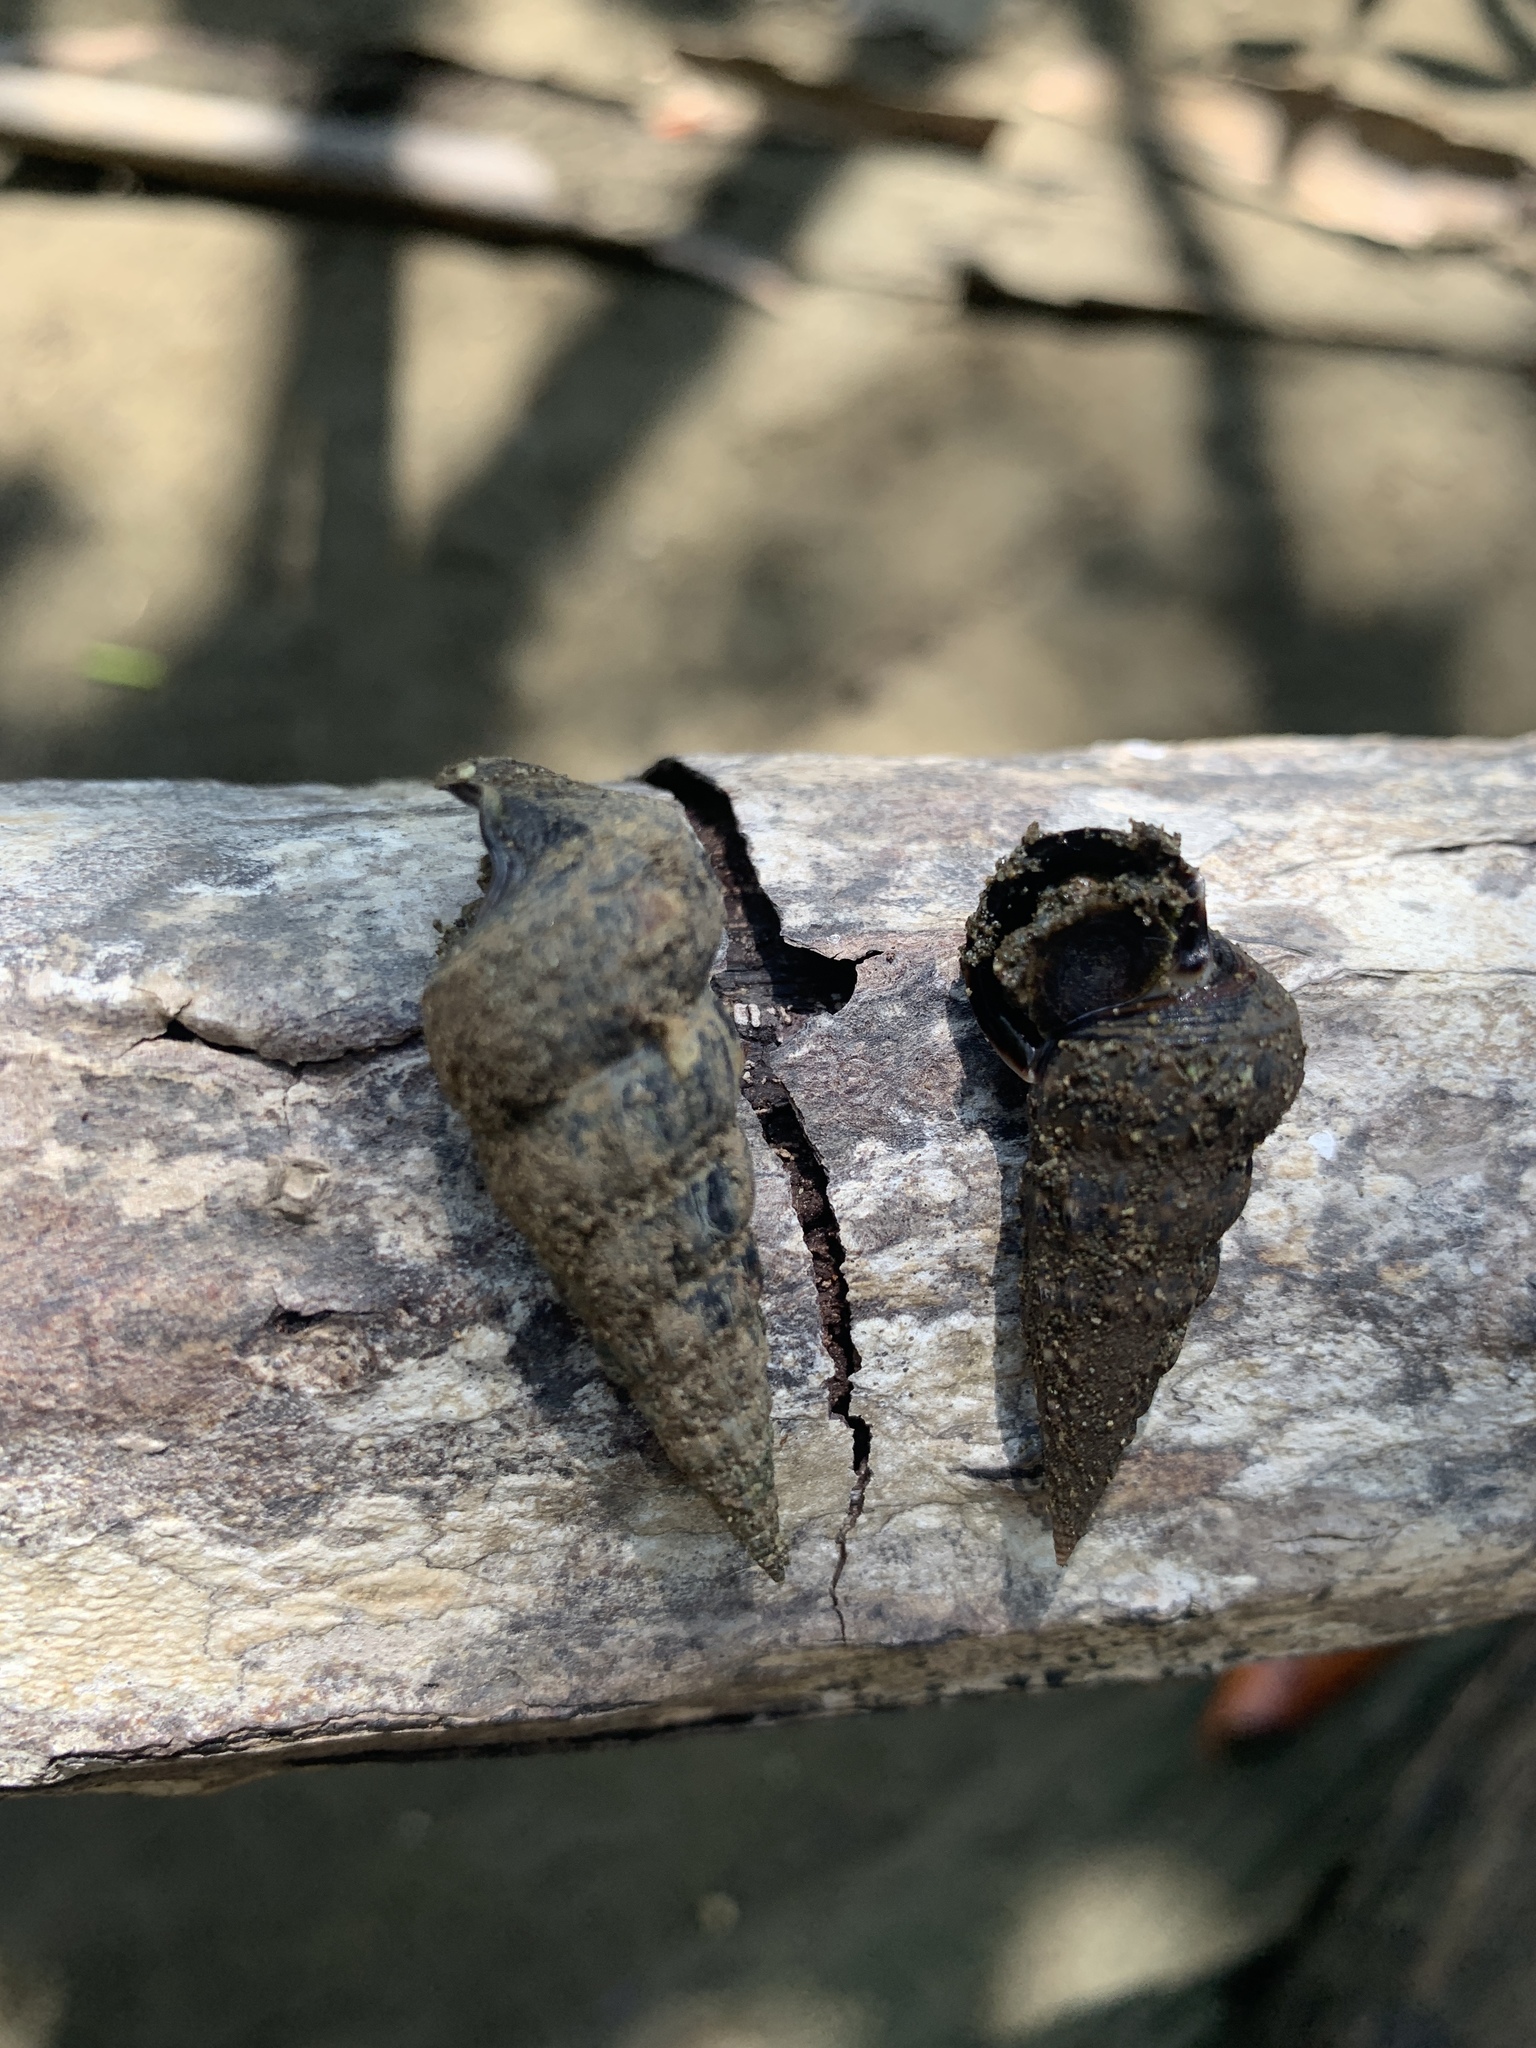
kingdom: Animalia
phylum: Mollusca
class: Gastropoda
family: Potamididae
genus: Cerithideopsis
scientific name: Cerithideopsis montagnei
